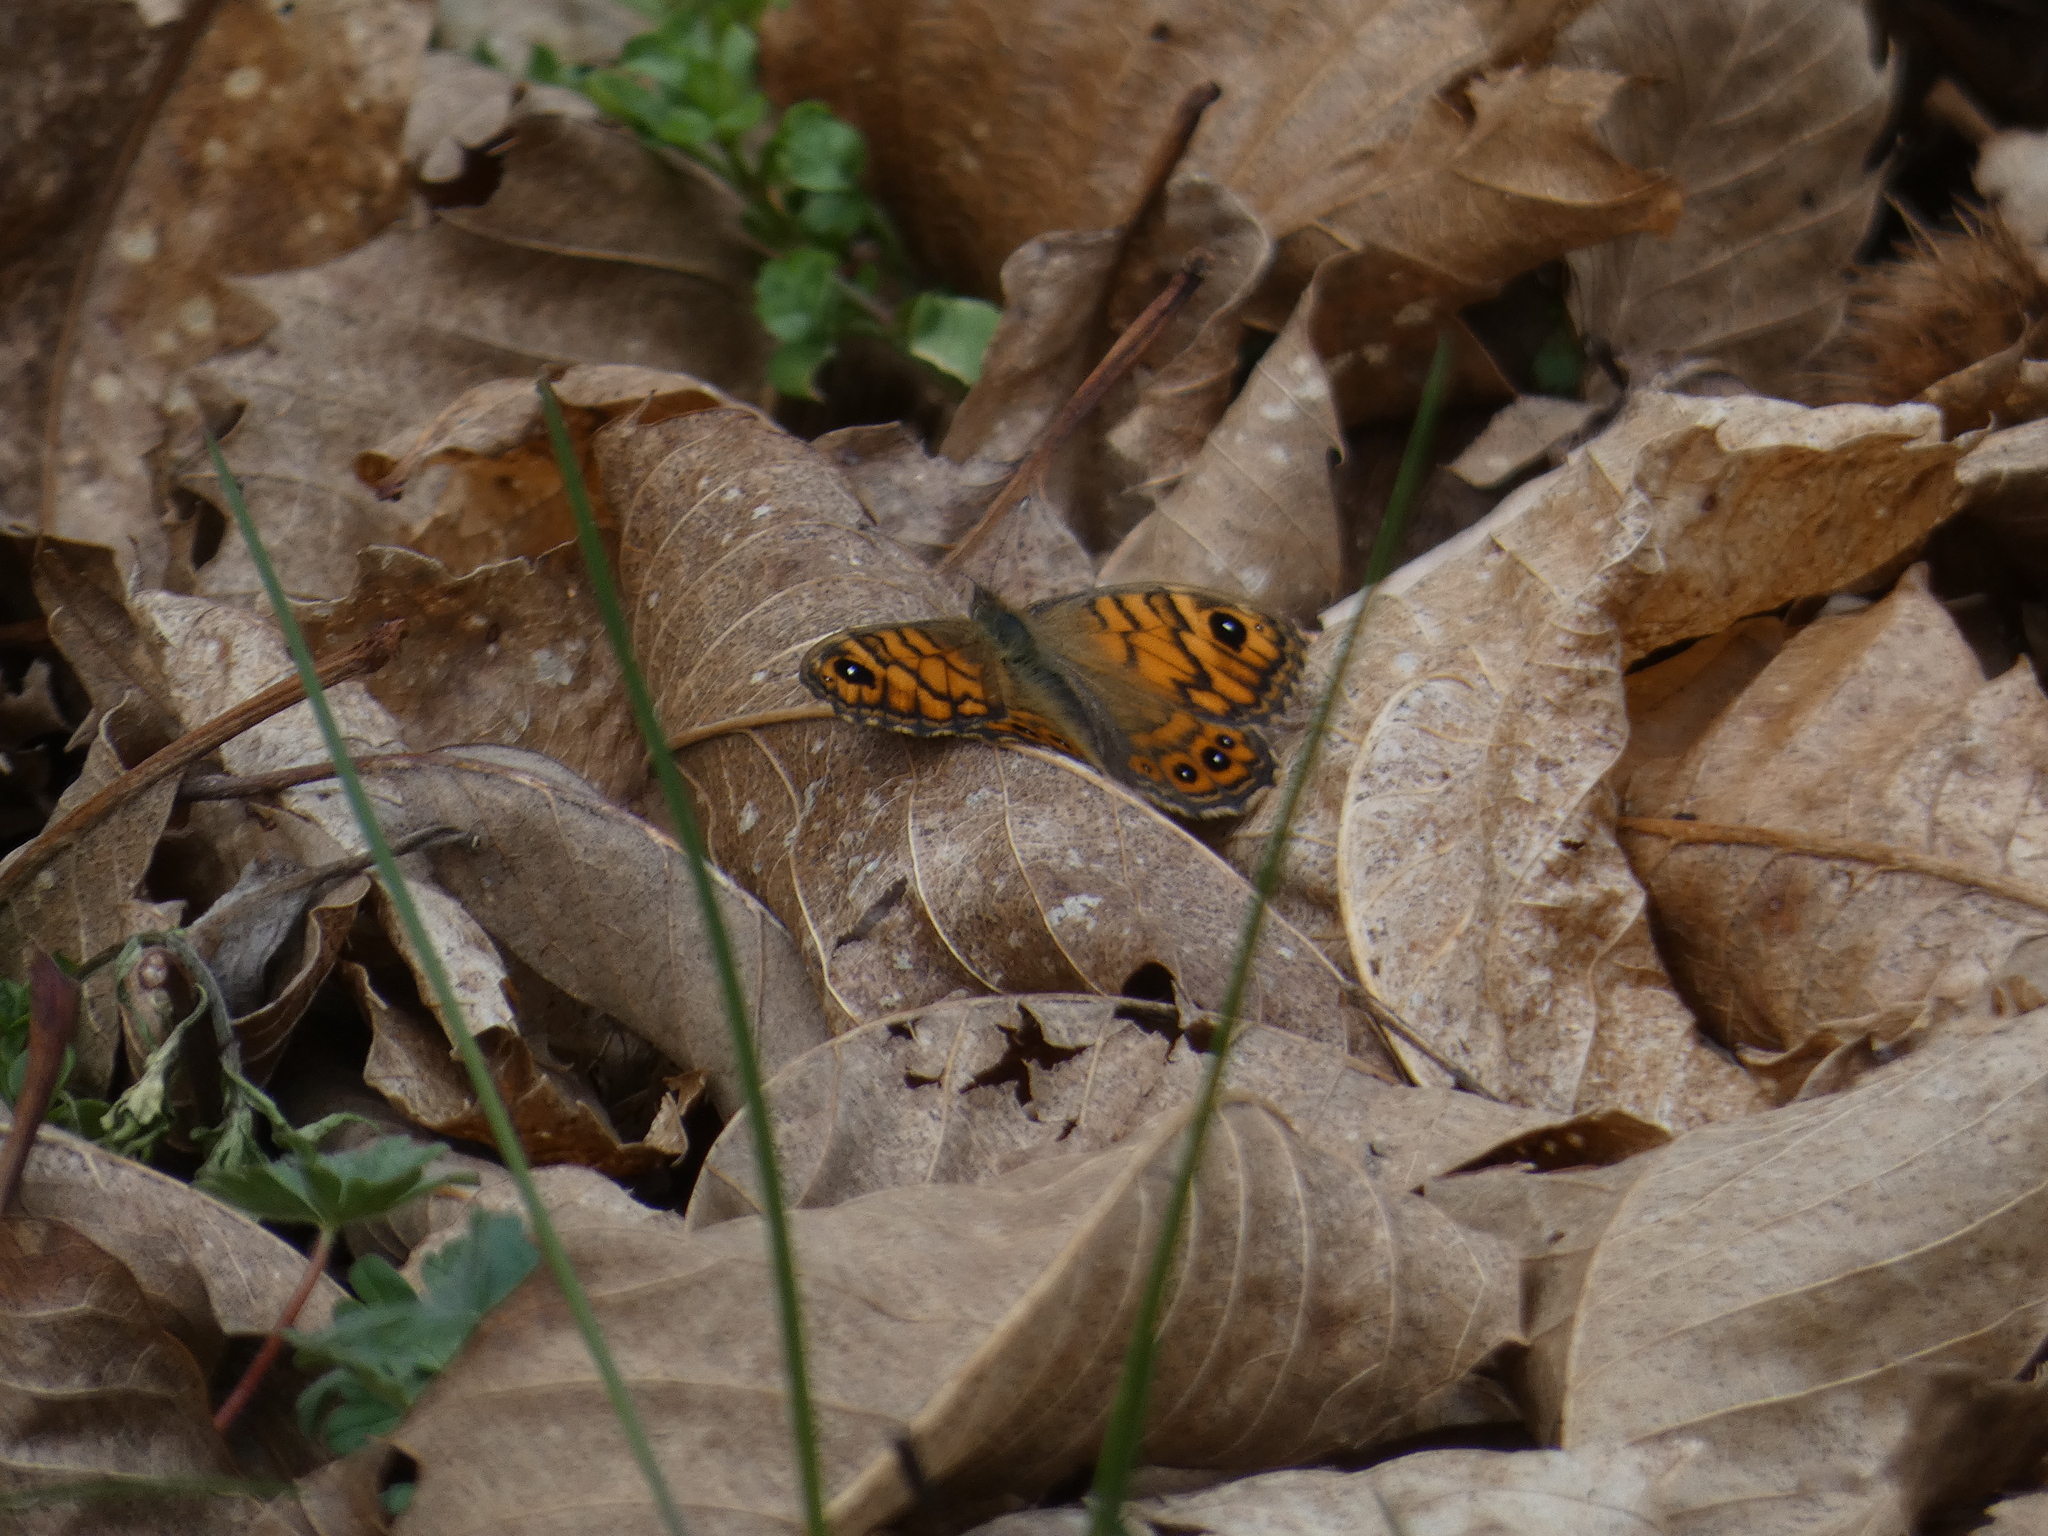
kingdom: Animalia
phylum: Arthropoda
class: Insecta
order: Lepidoptera
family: Nymphalidae
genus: Pararge
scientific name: Pararge Lasiommata megera
